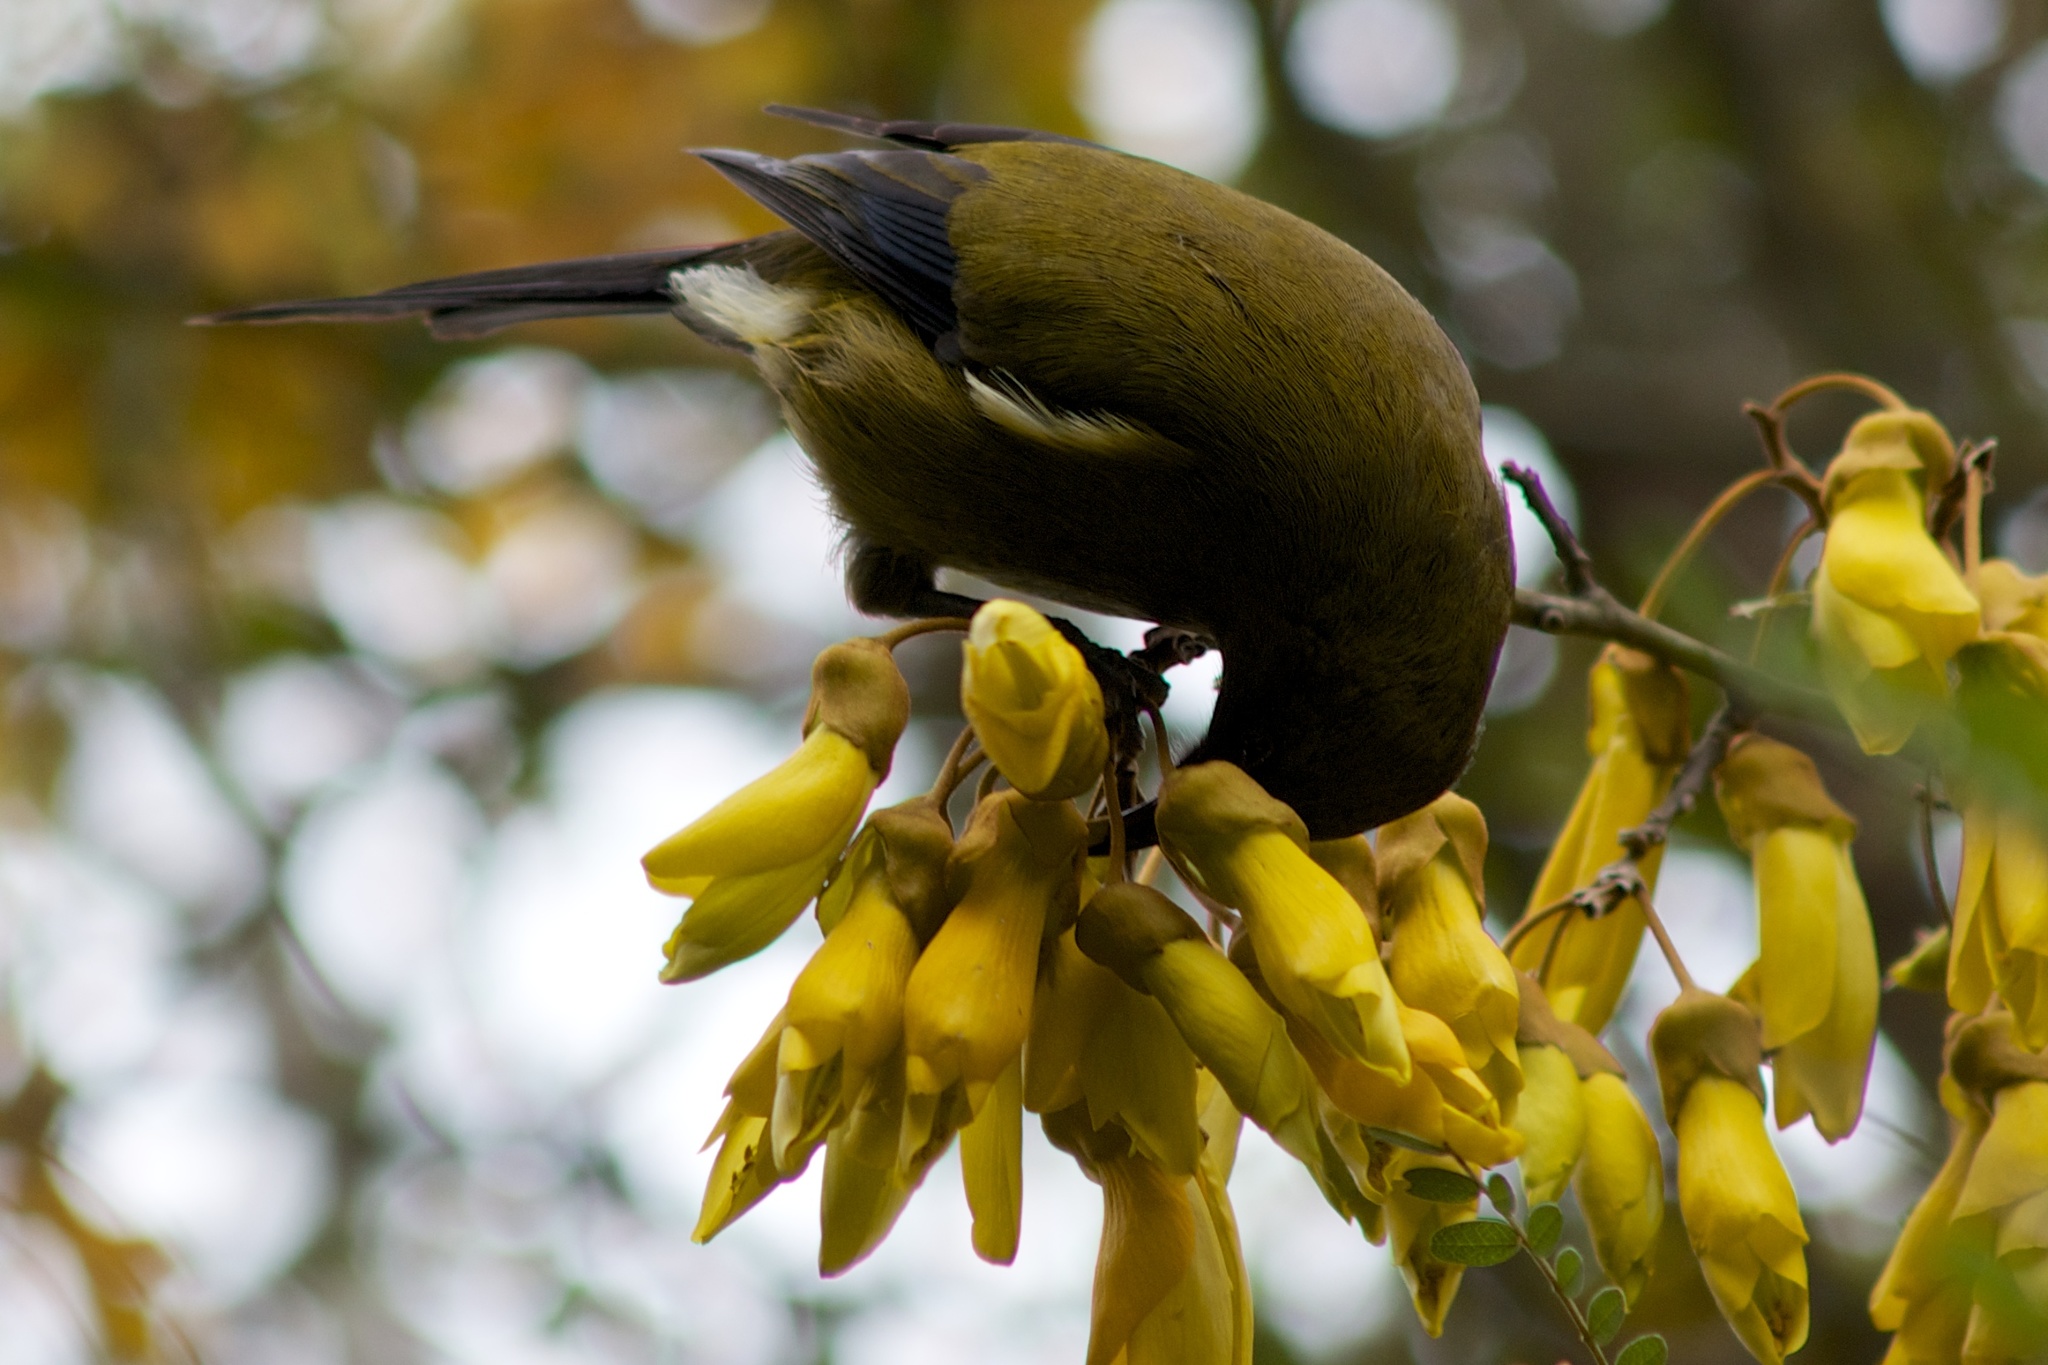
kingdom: Animalia
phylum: Chordata
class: Aves
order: Passeriformes
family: Meliphagidae
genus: Anthornis
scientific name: Anthornis melanura
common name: New zealand bellbird
